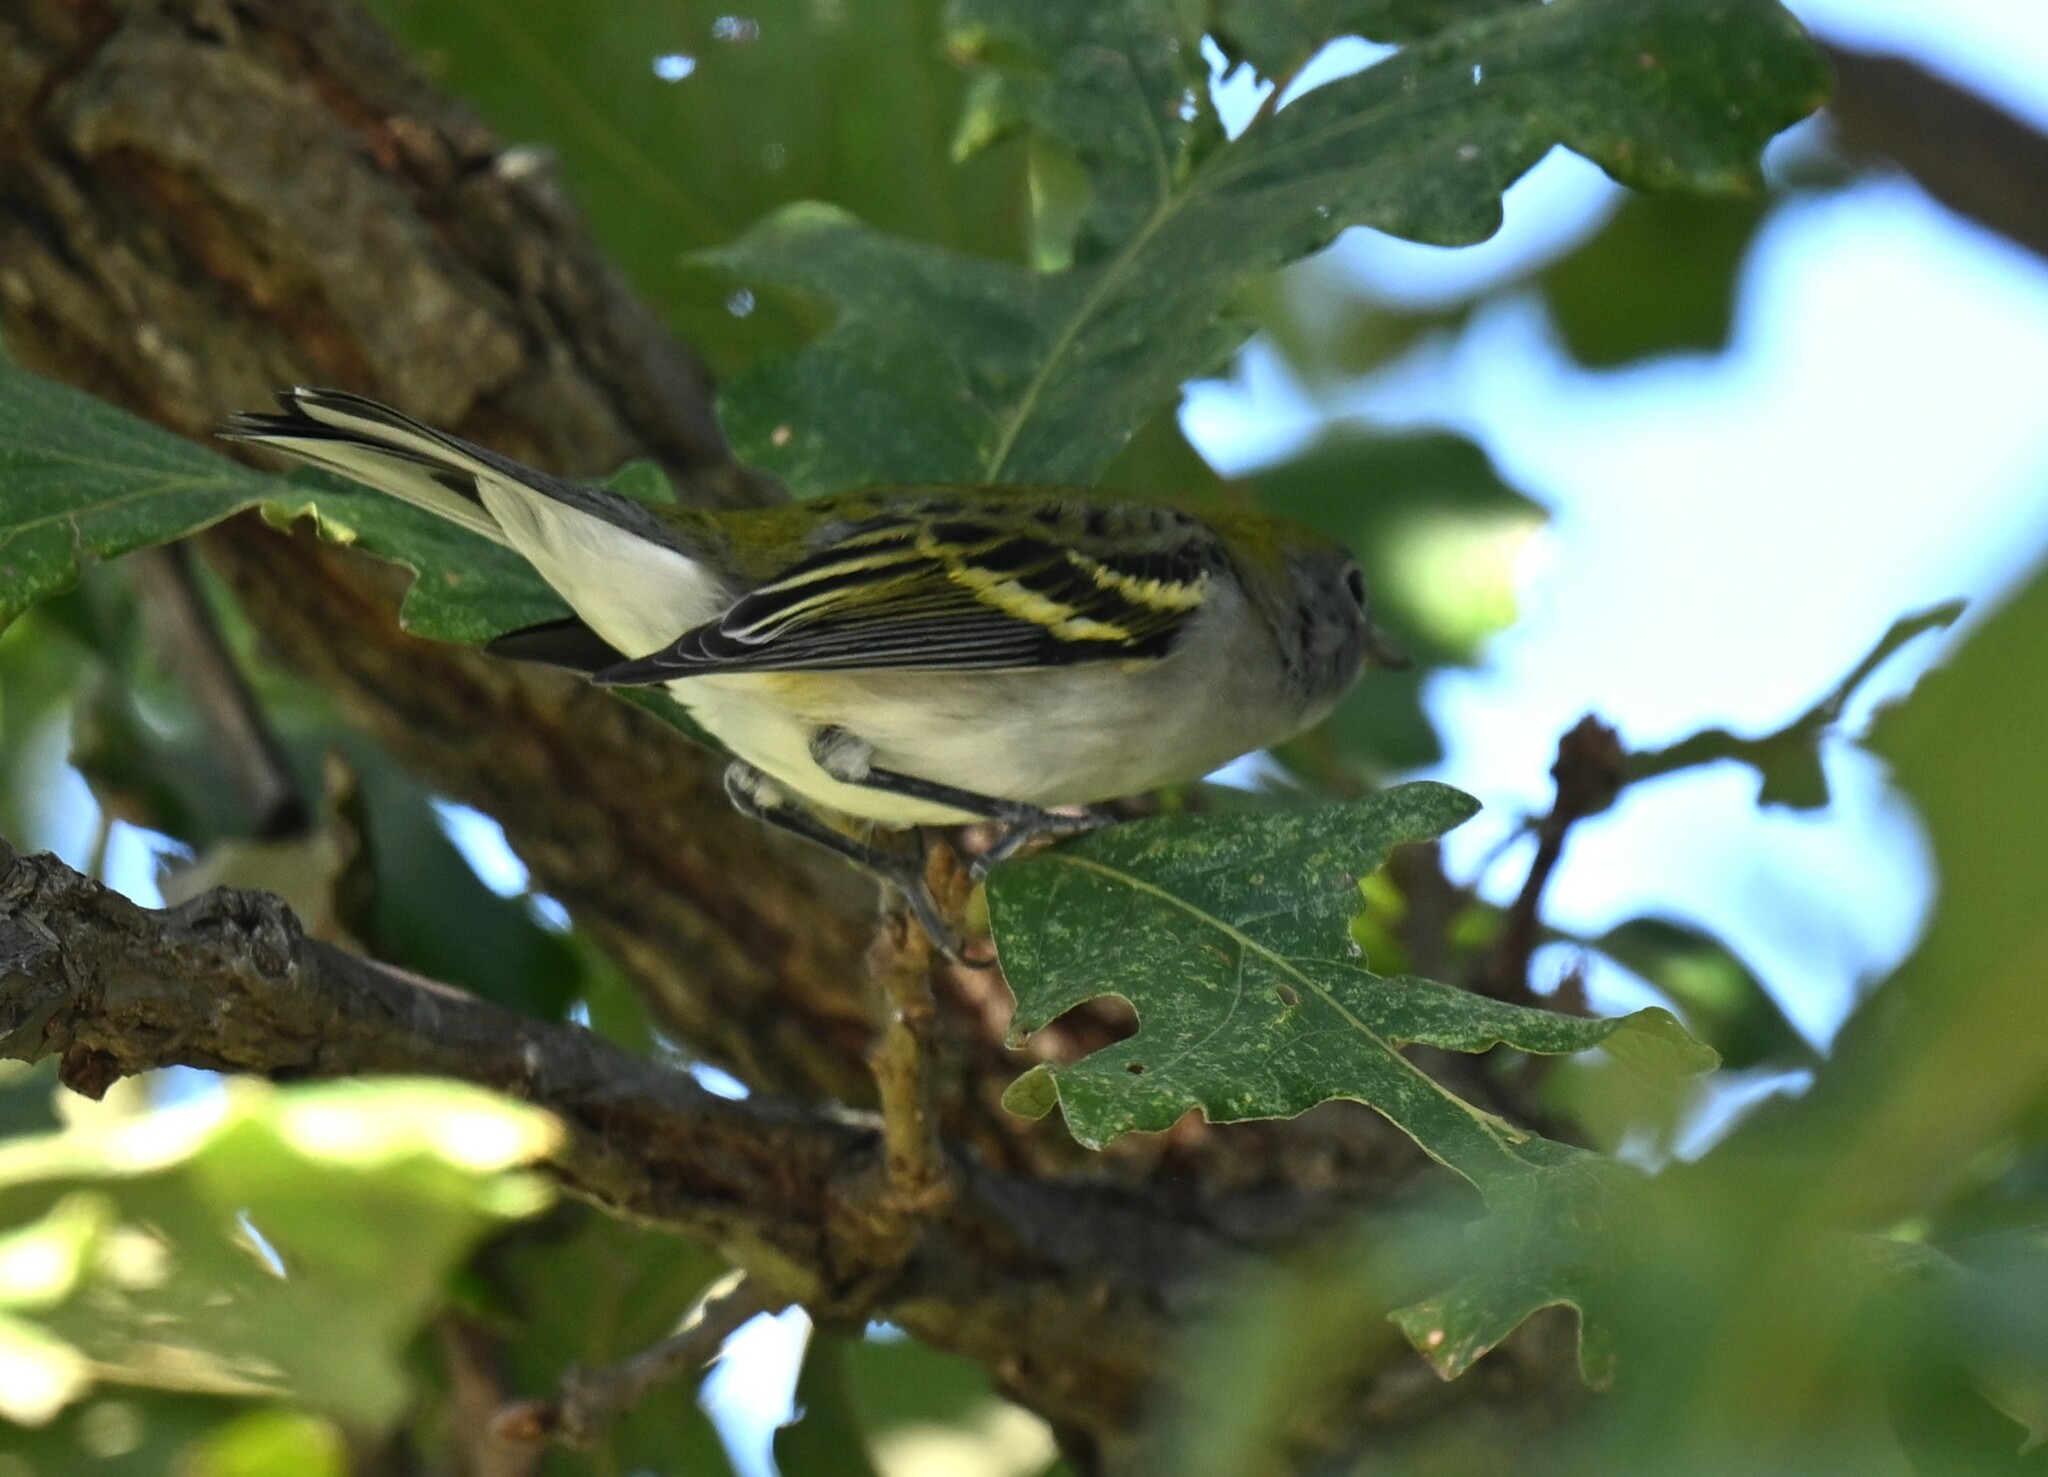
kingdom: Animalia
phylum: Chordata
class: Aves
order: Passeriformes
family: Parulidae
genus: Setophaga
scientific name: Setophaga pensylvanica
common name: Chestnut-sided warbler
